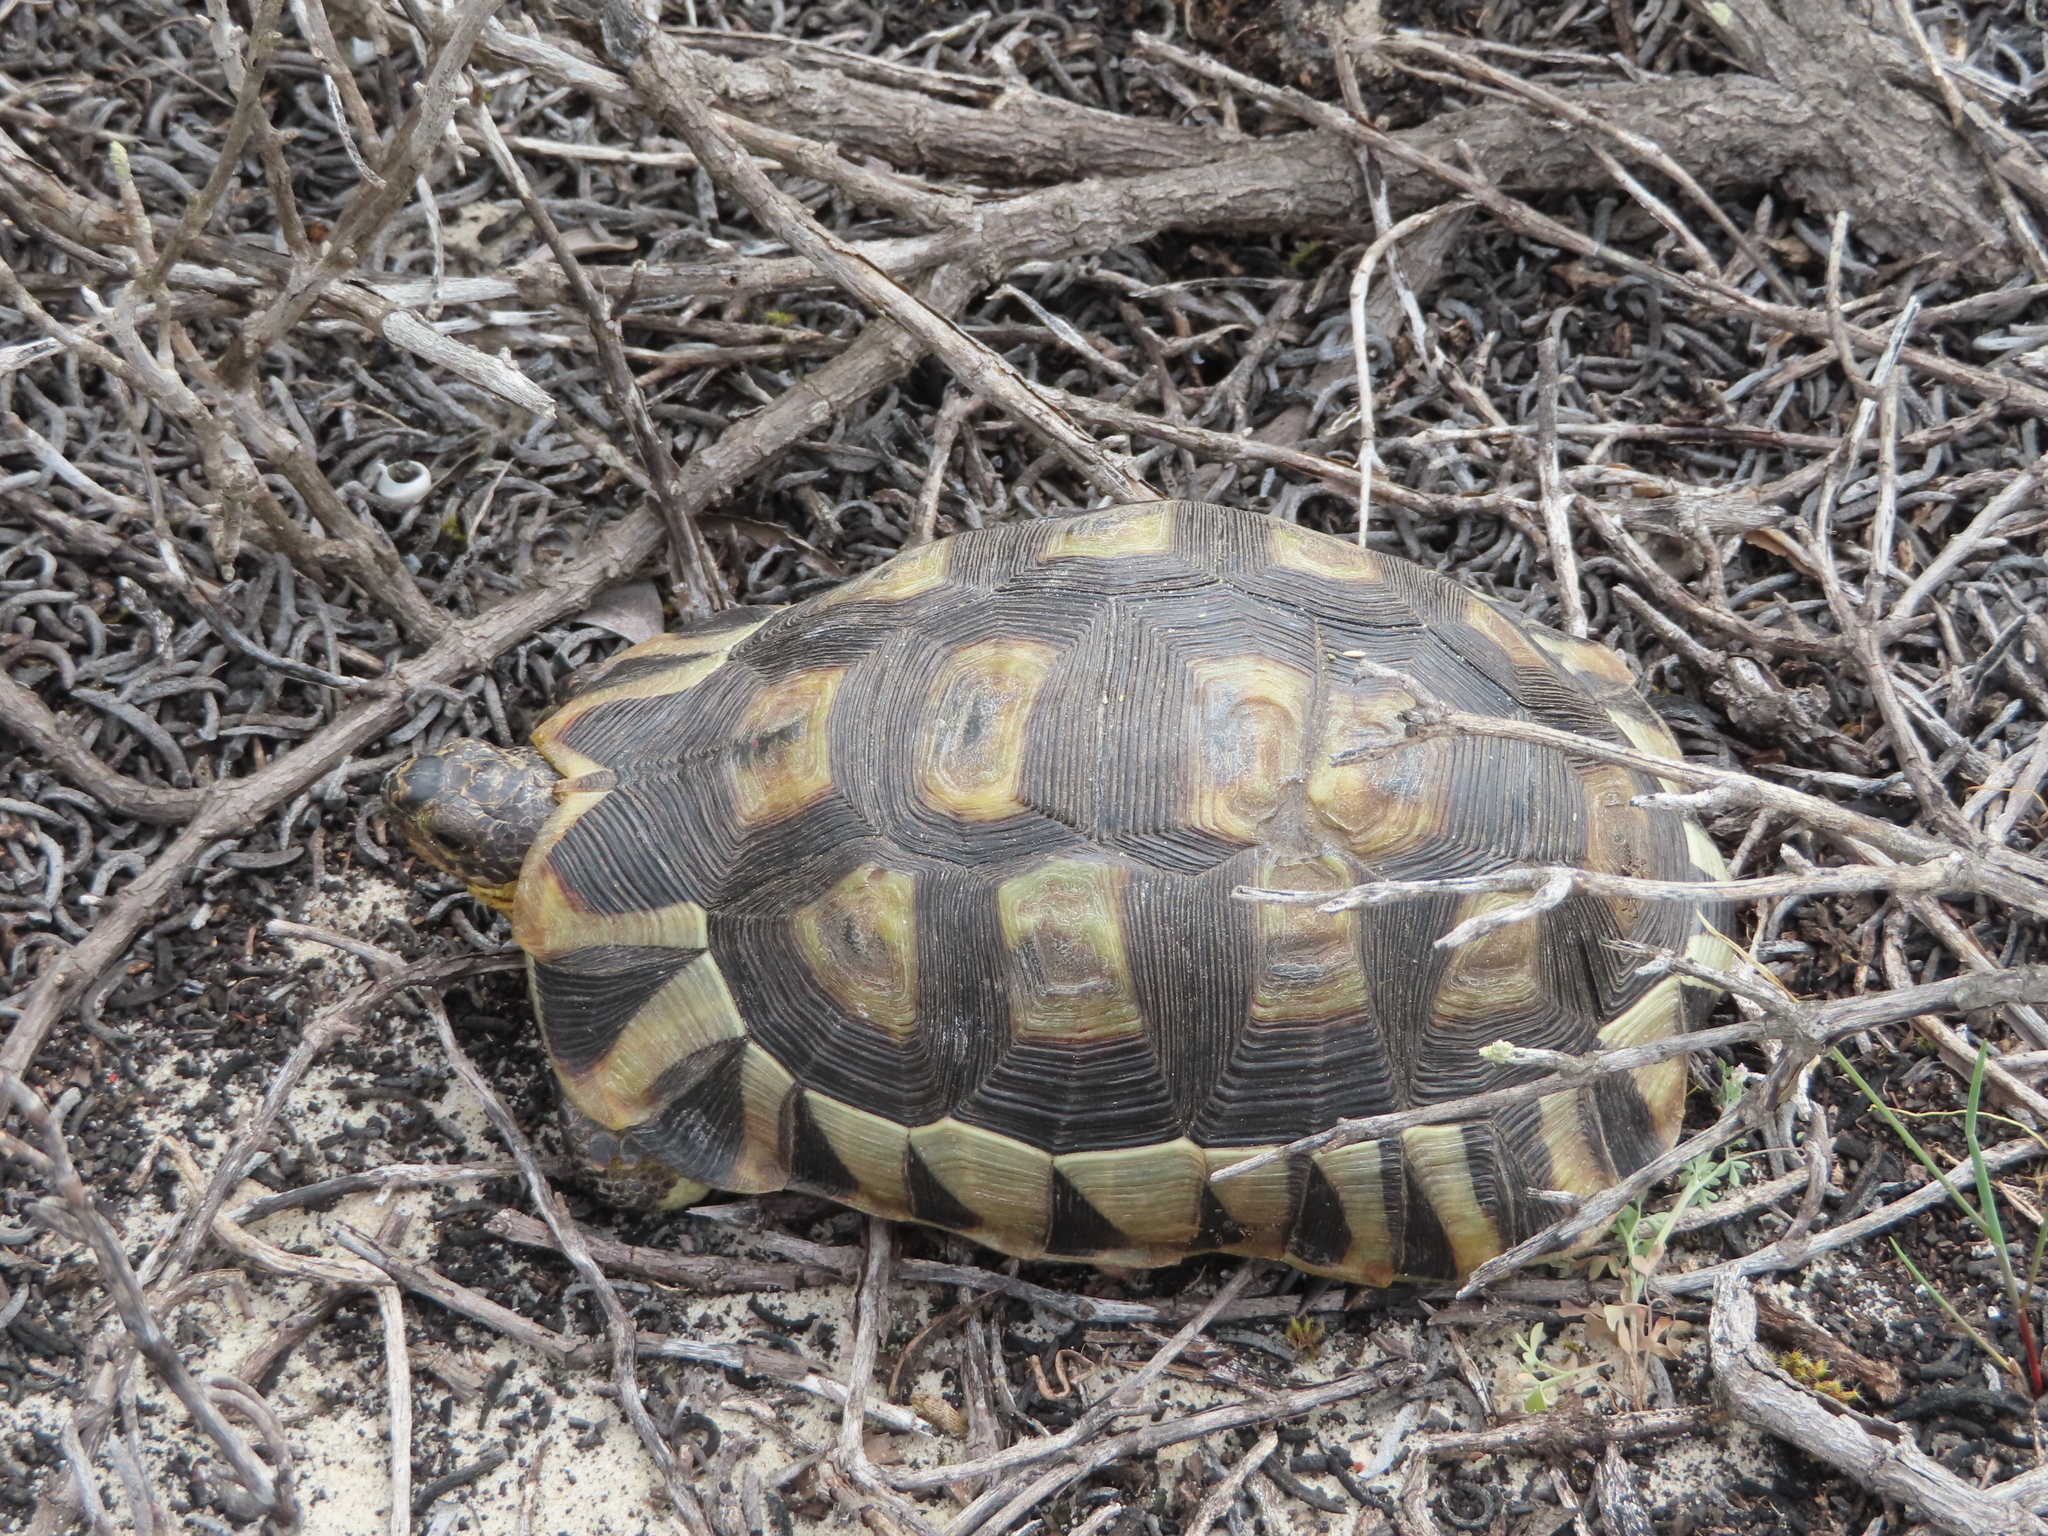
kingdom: Animalia
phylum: Chordata
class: Testudines
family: Testudinidae
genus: Chersina
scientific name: Chersina angulata
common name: South african bowsprit tortoise
